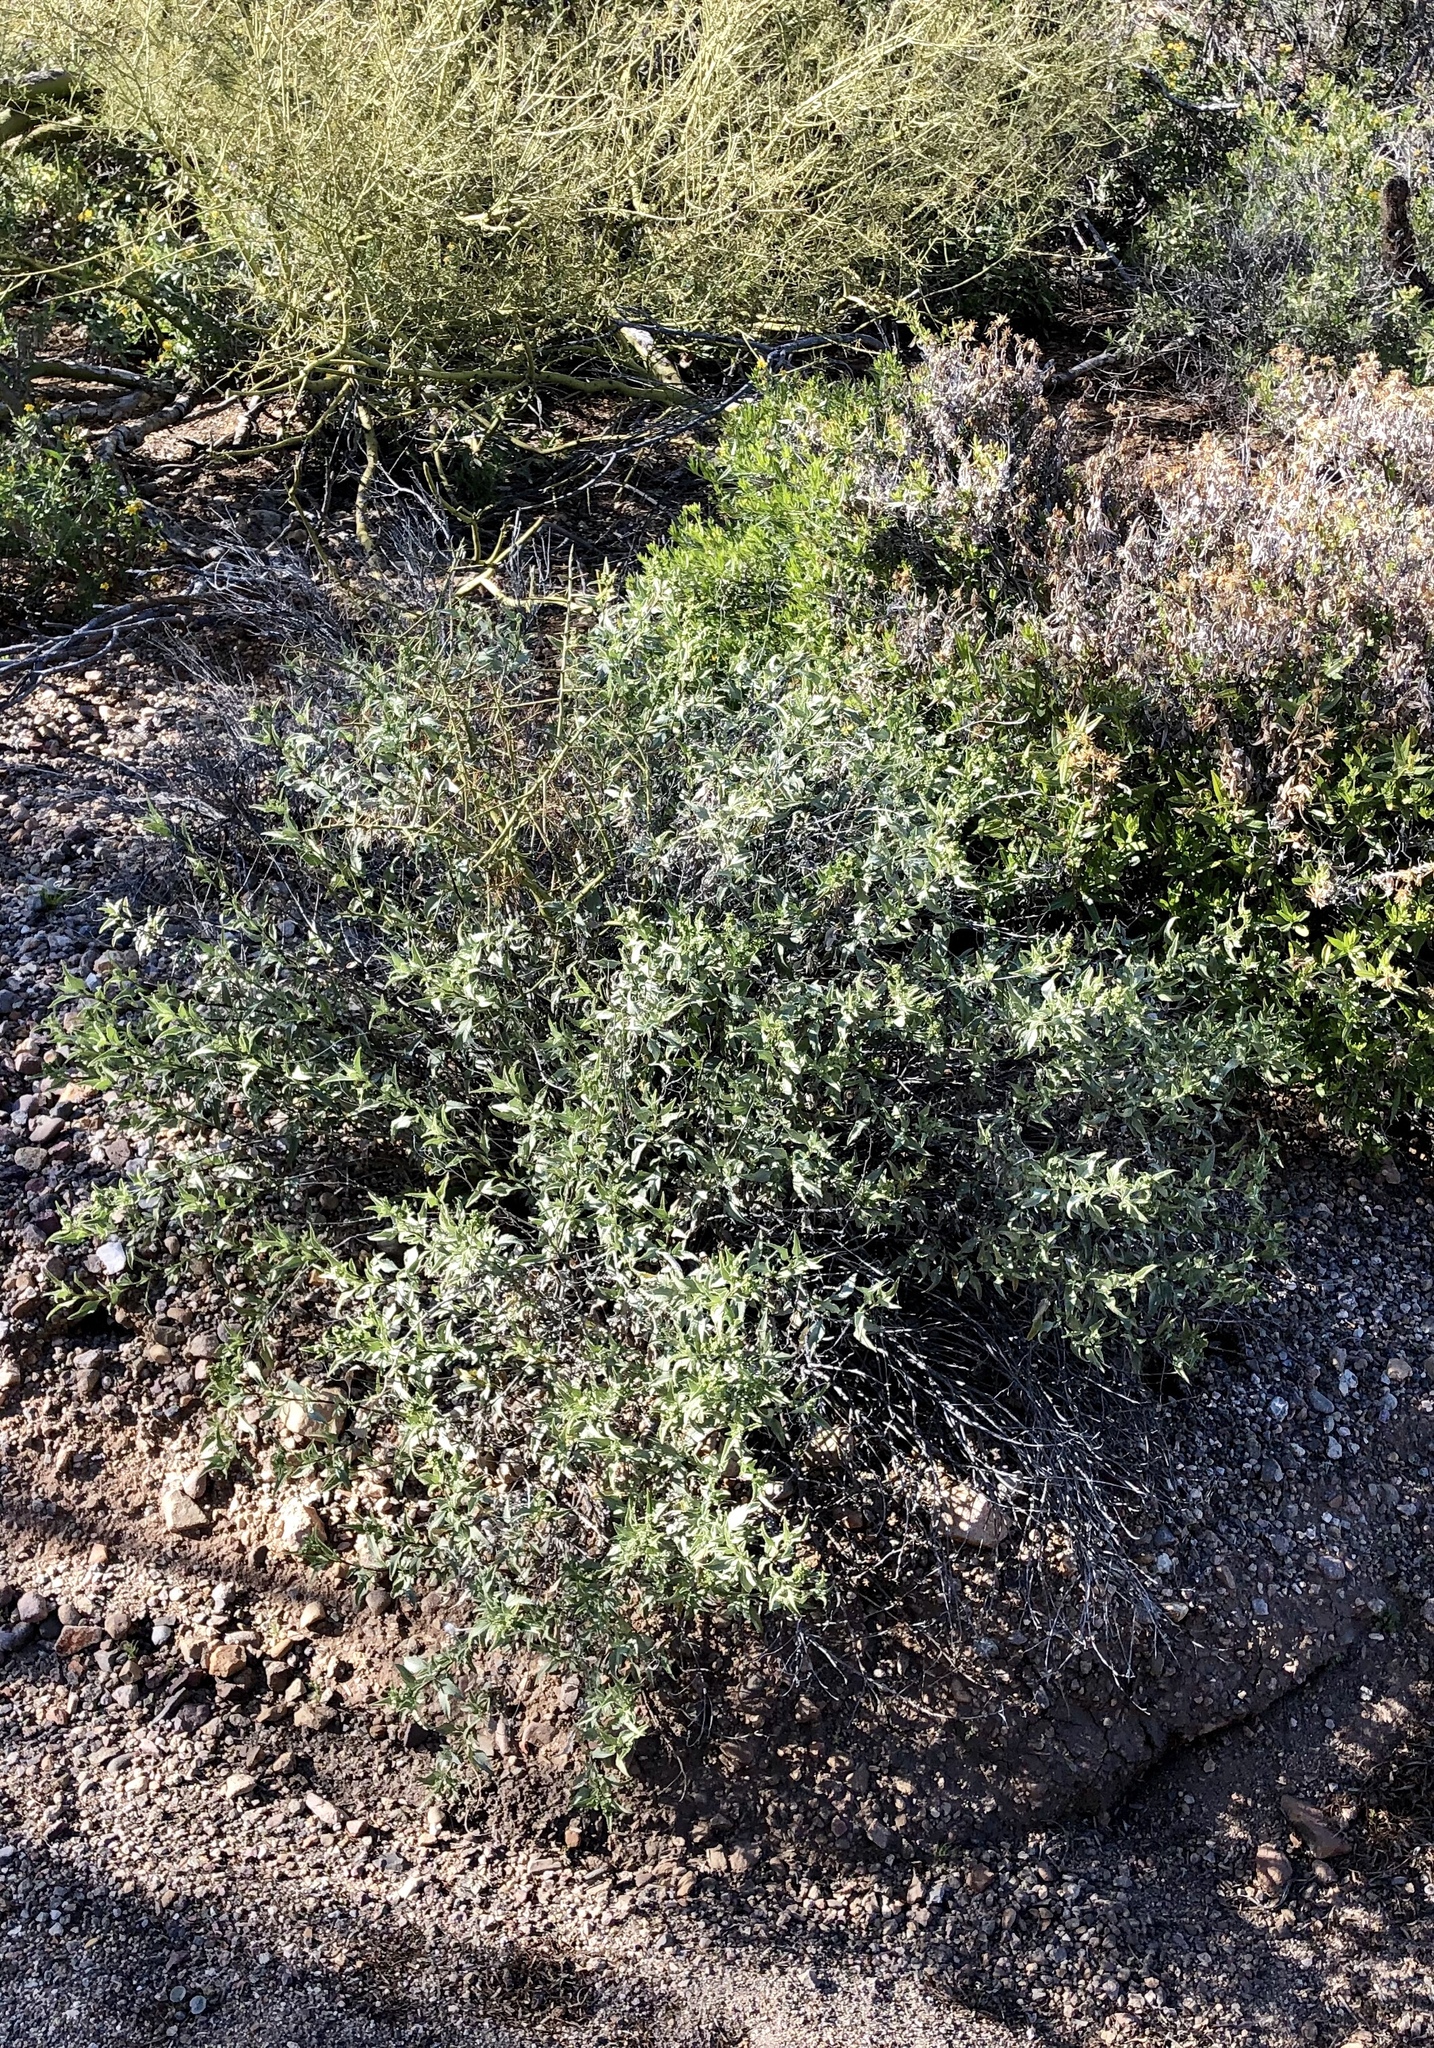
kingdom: Plantae
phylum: Tracheophyta
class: Magnoliopsida
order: Asterales
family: Asteraceae
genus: Ambrosia
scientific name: Ambrosia deltoidea
